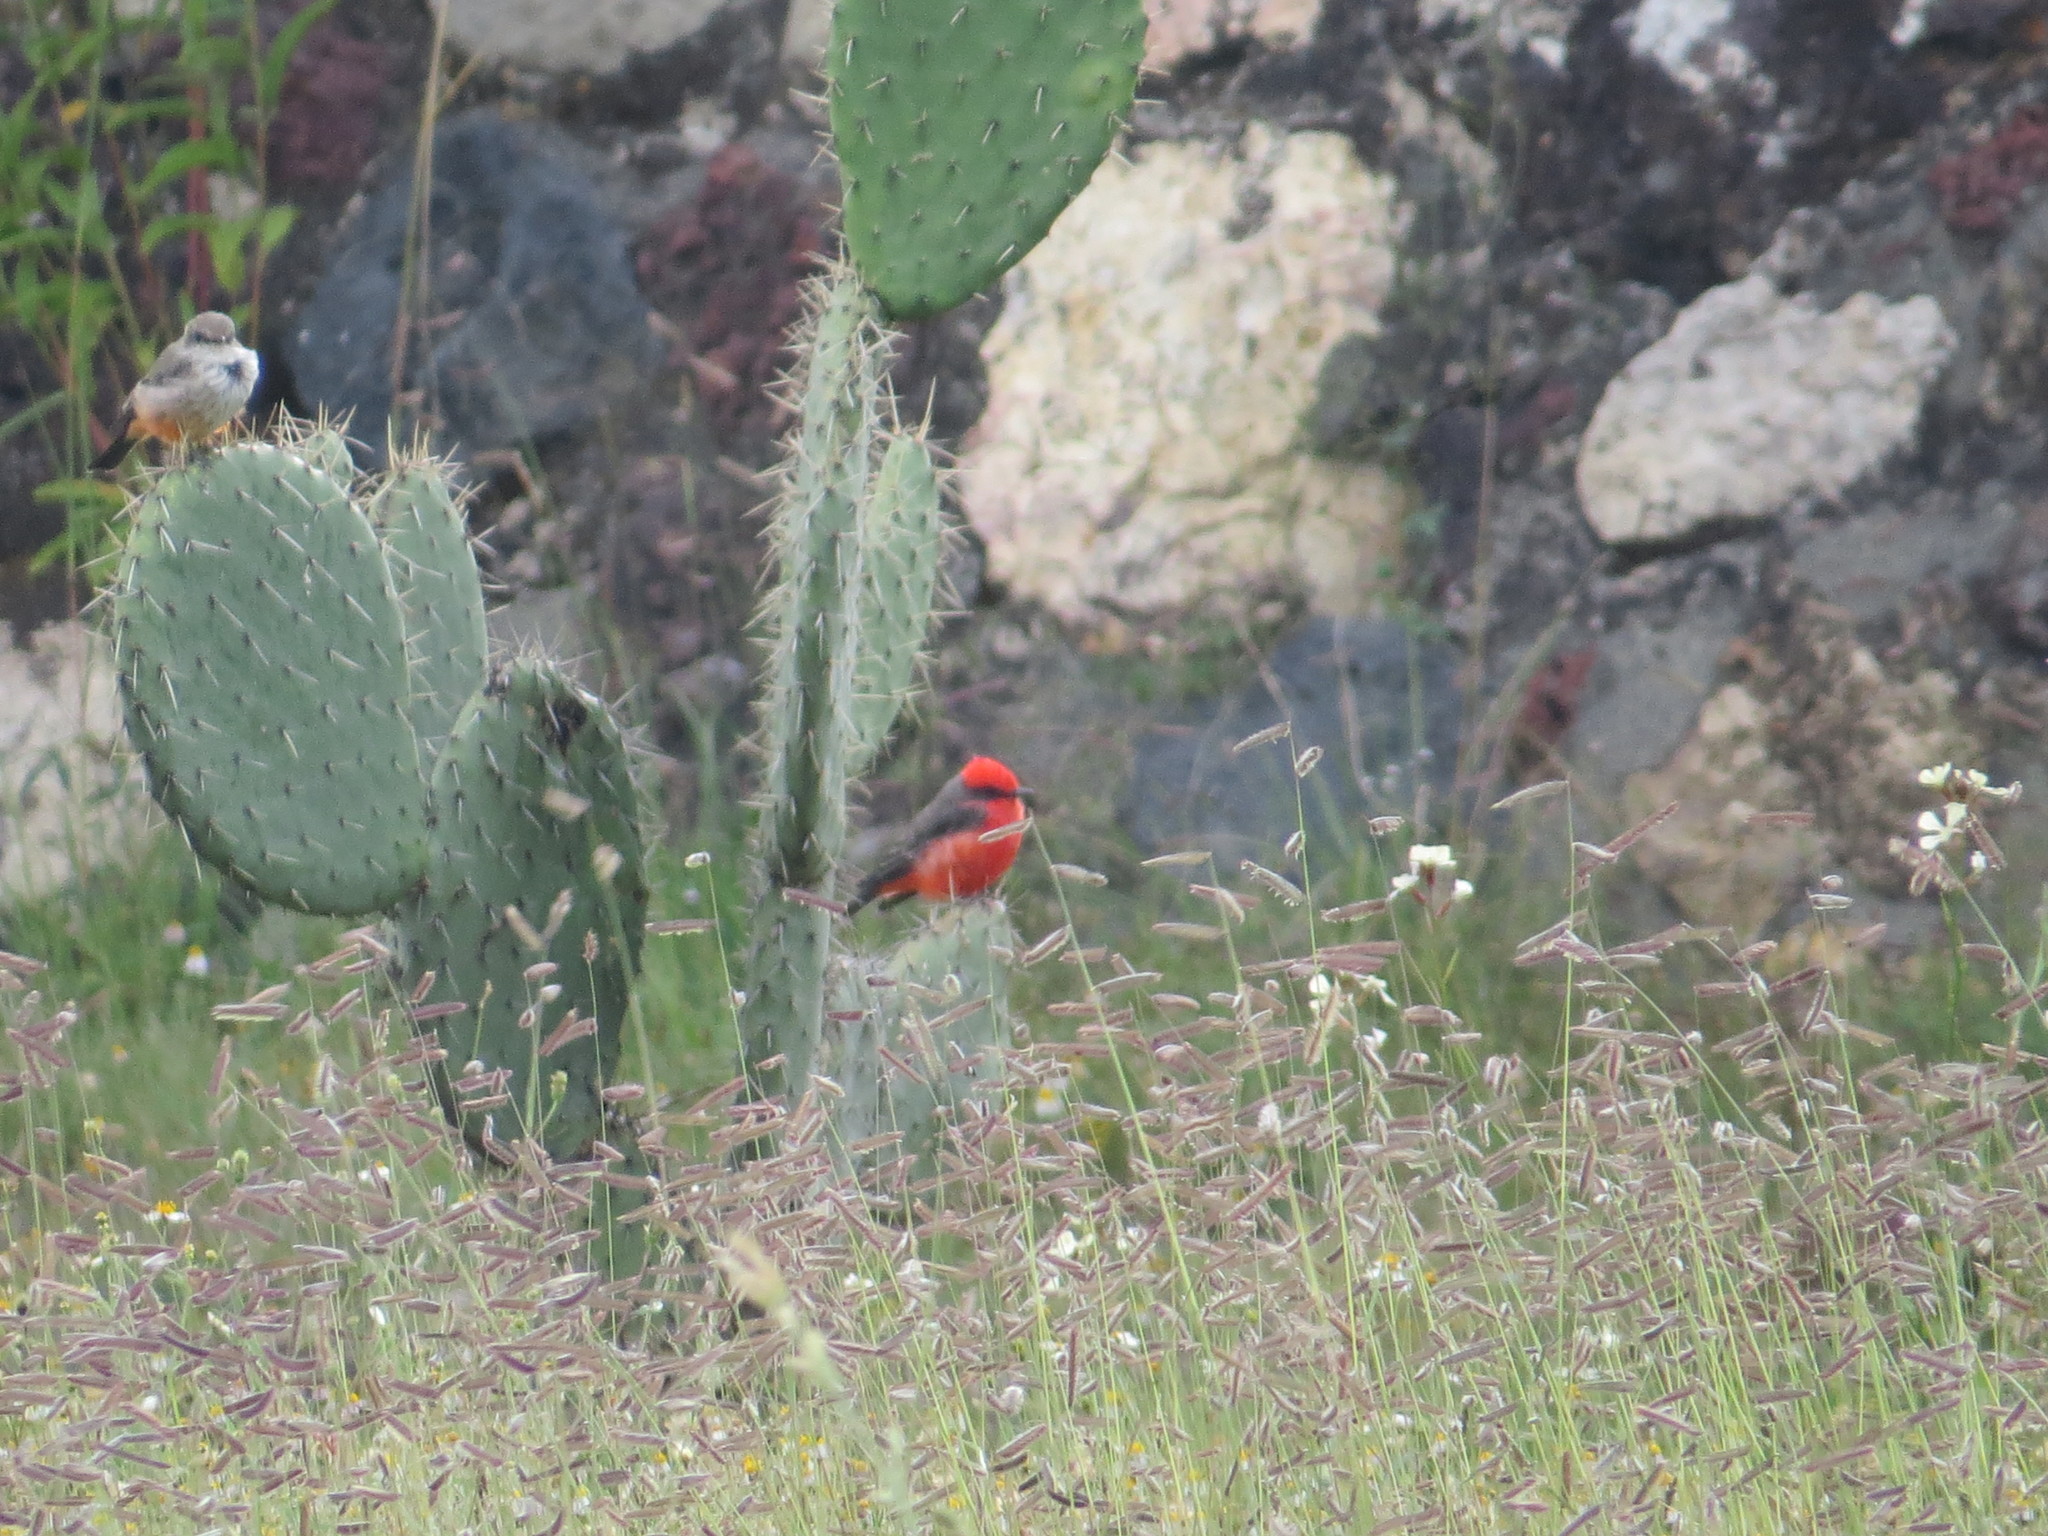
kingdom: Animalia
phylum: Chordata
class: Aves
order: Passeriformes
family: Tyrannidae
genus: Pyrocephalus
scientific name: Pyrocephalus rubinus
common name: Vermilion flycatcher
